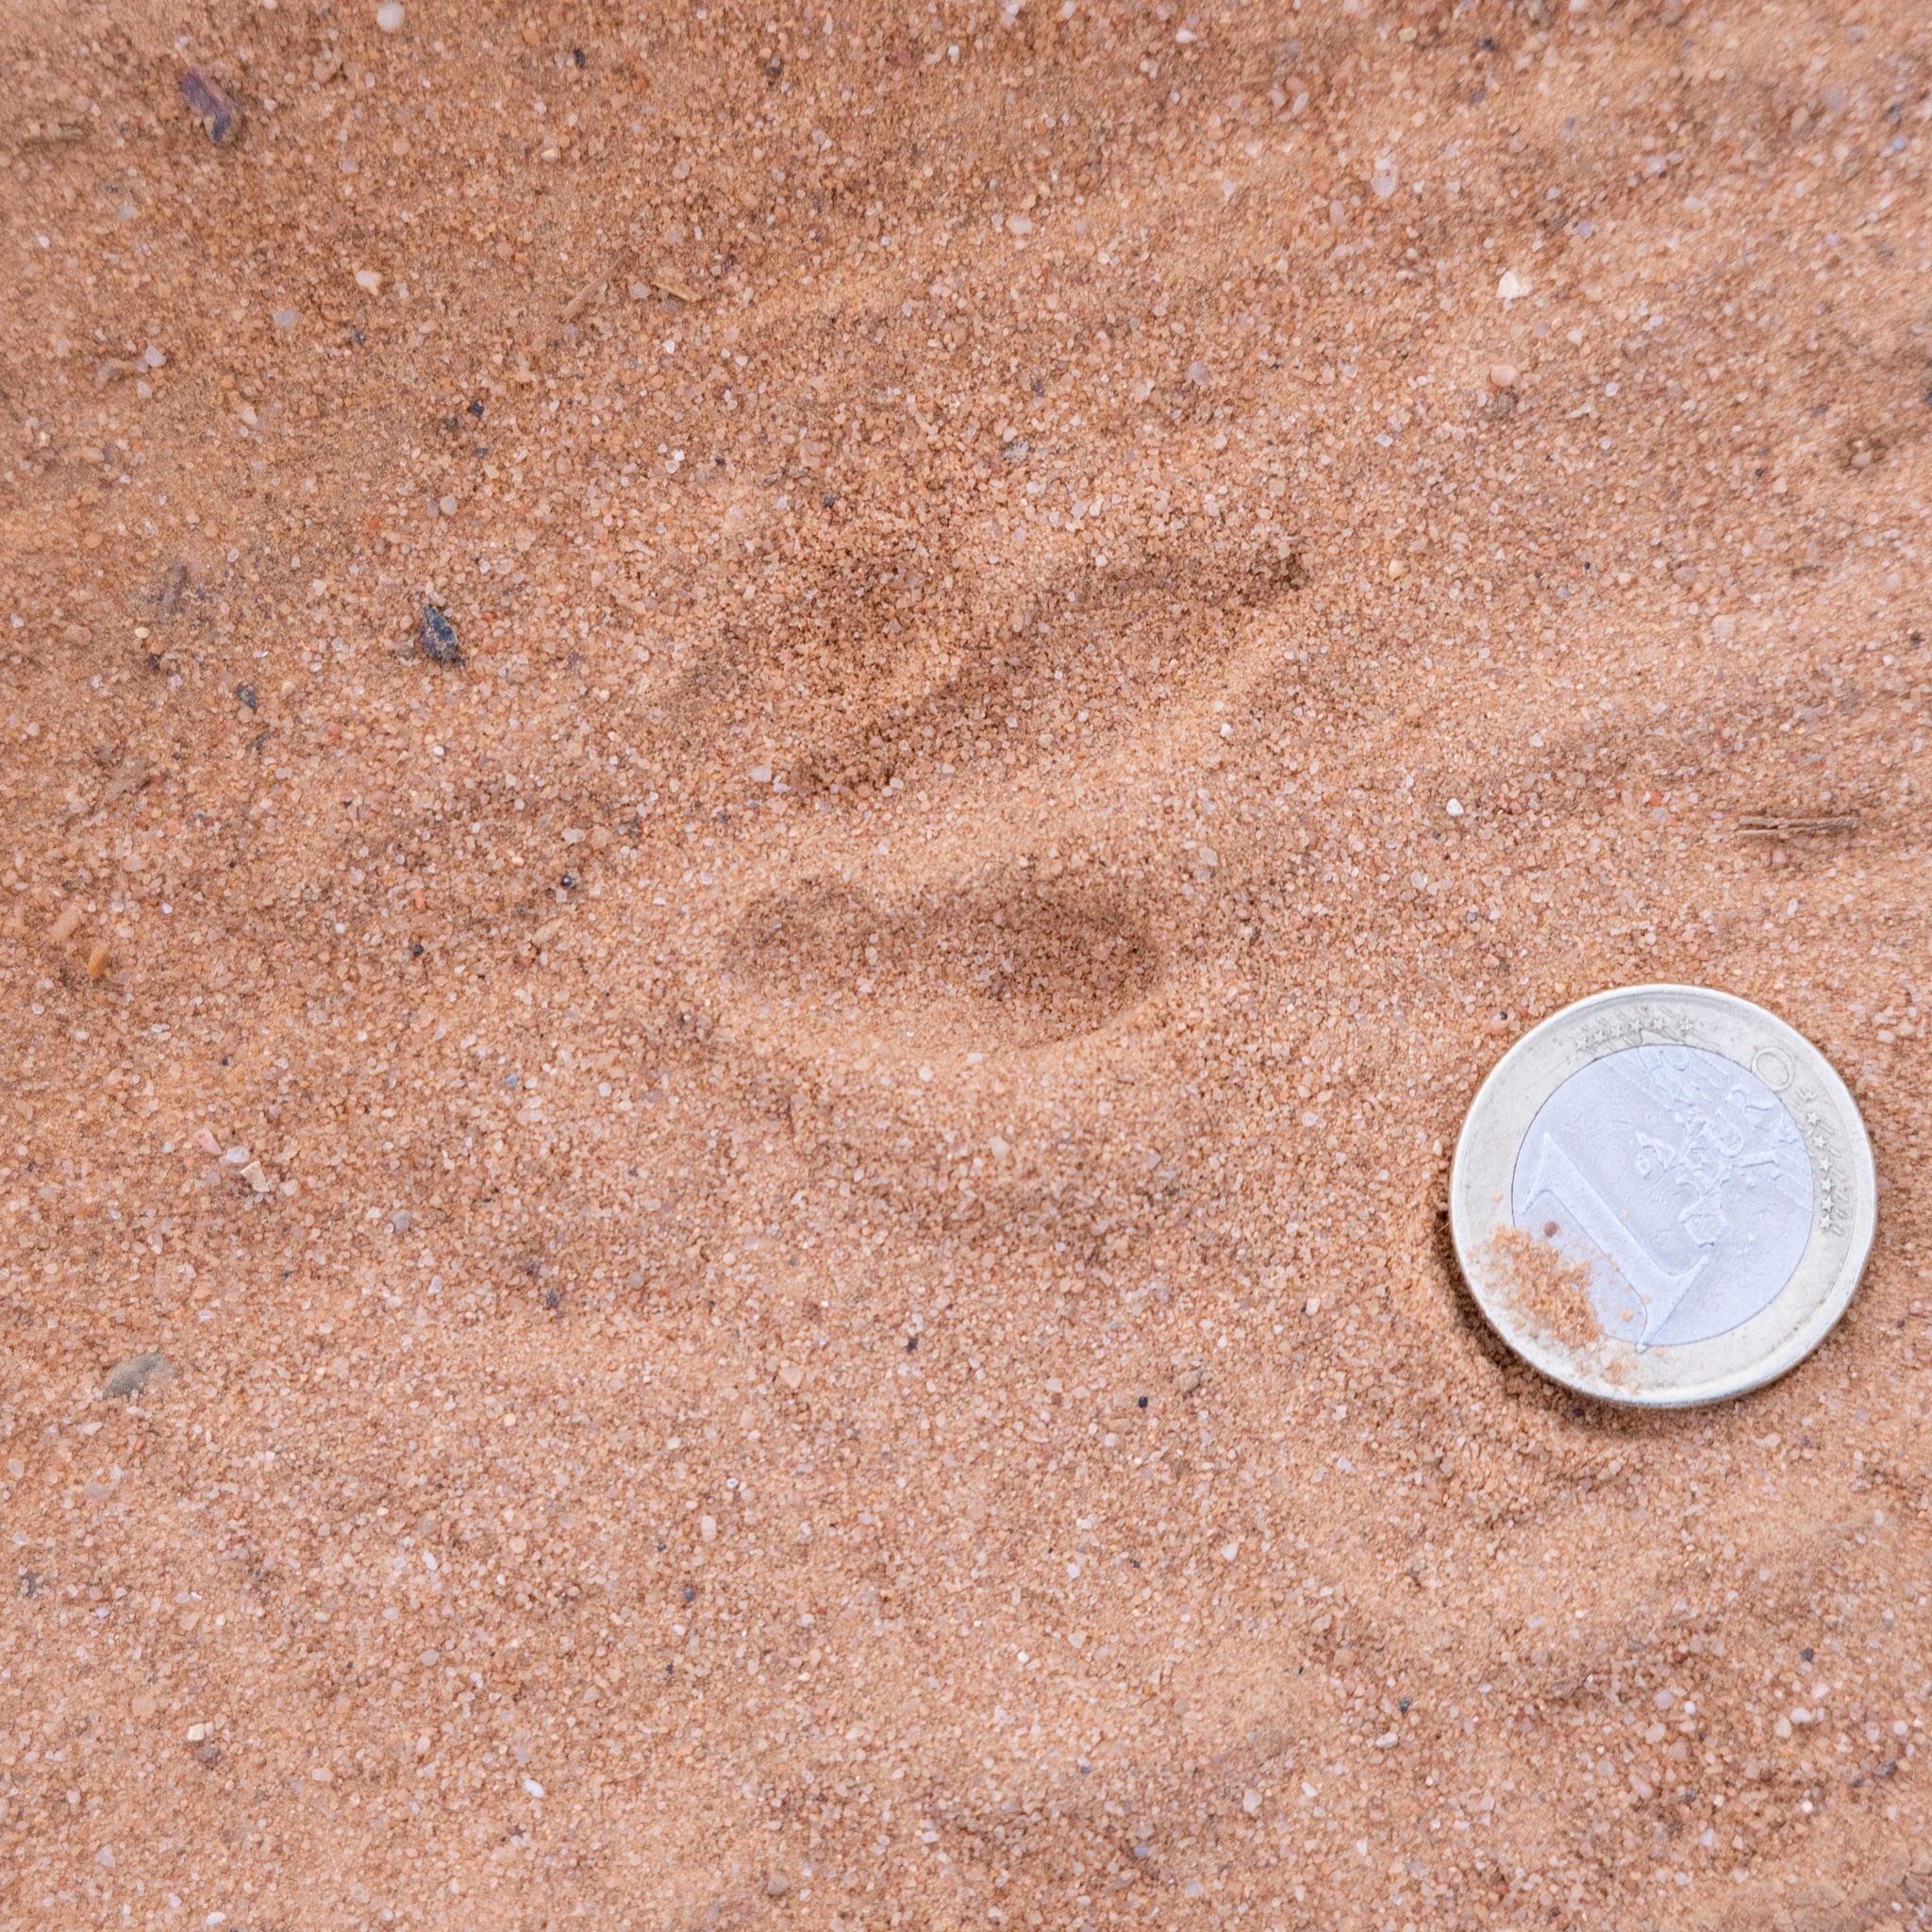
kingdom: Animalia
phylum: Chordata
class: Aves
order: Charadriiformes
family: Burhinidae
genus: Burhinus
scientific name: Burhinus oedicnemus
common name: Eurasian stone-curlew
